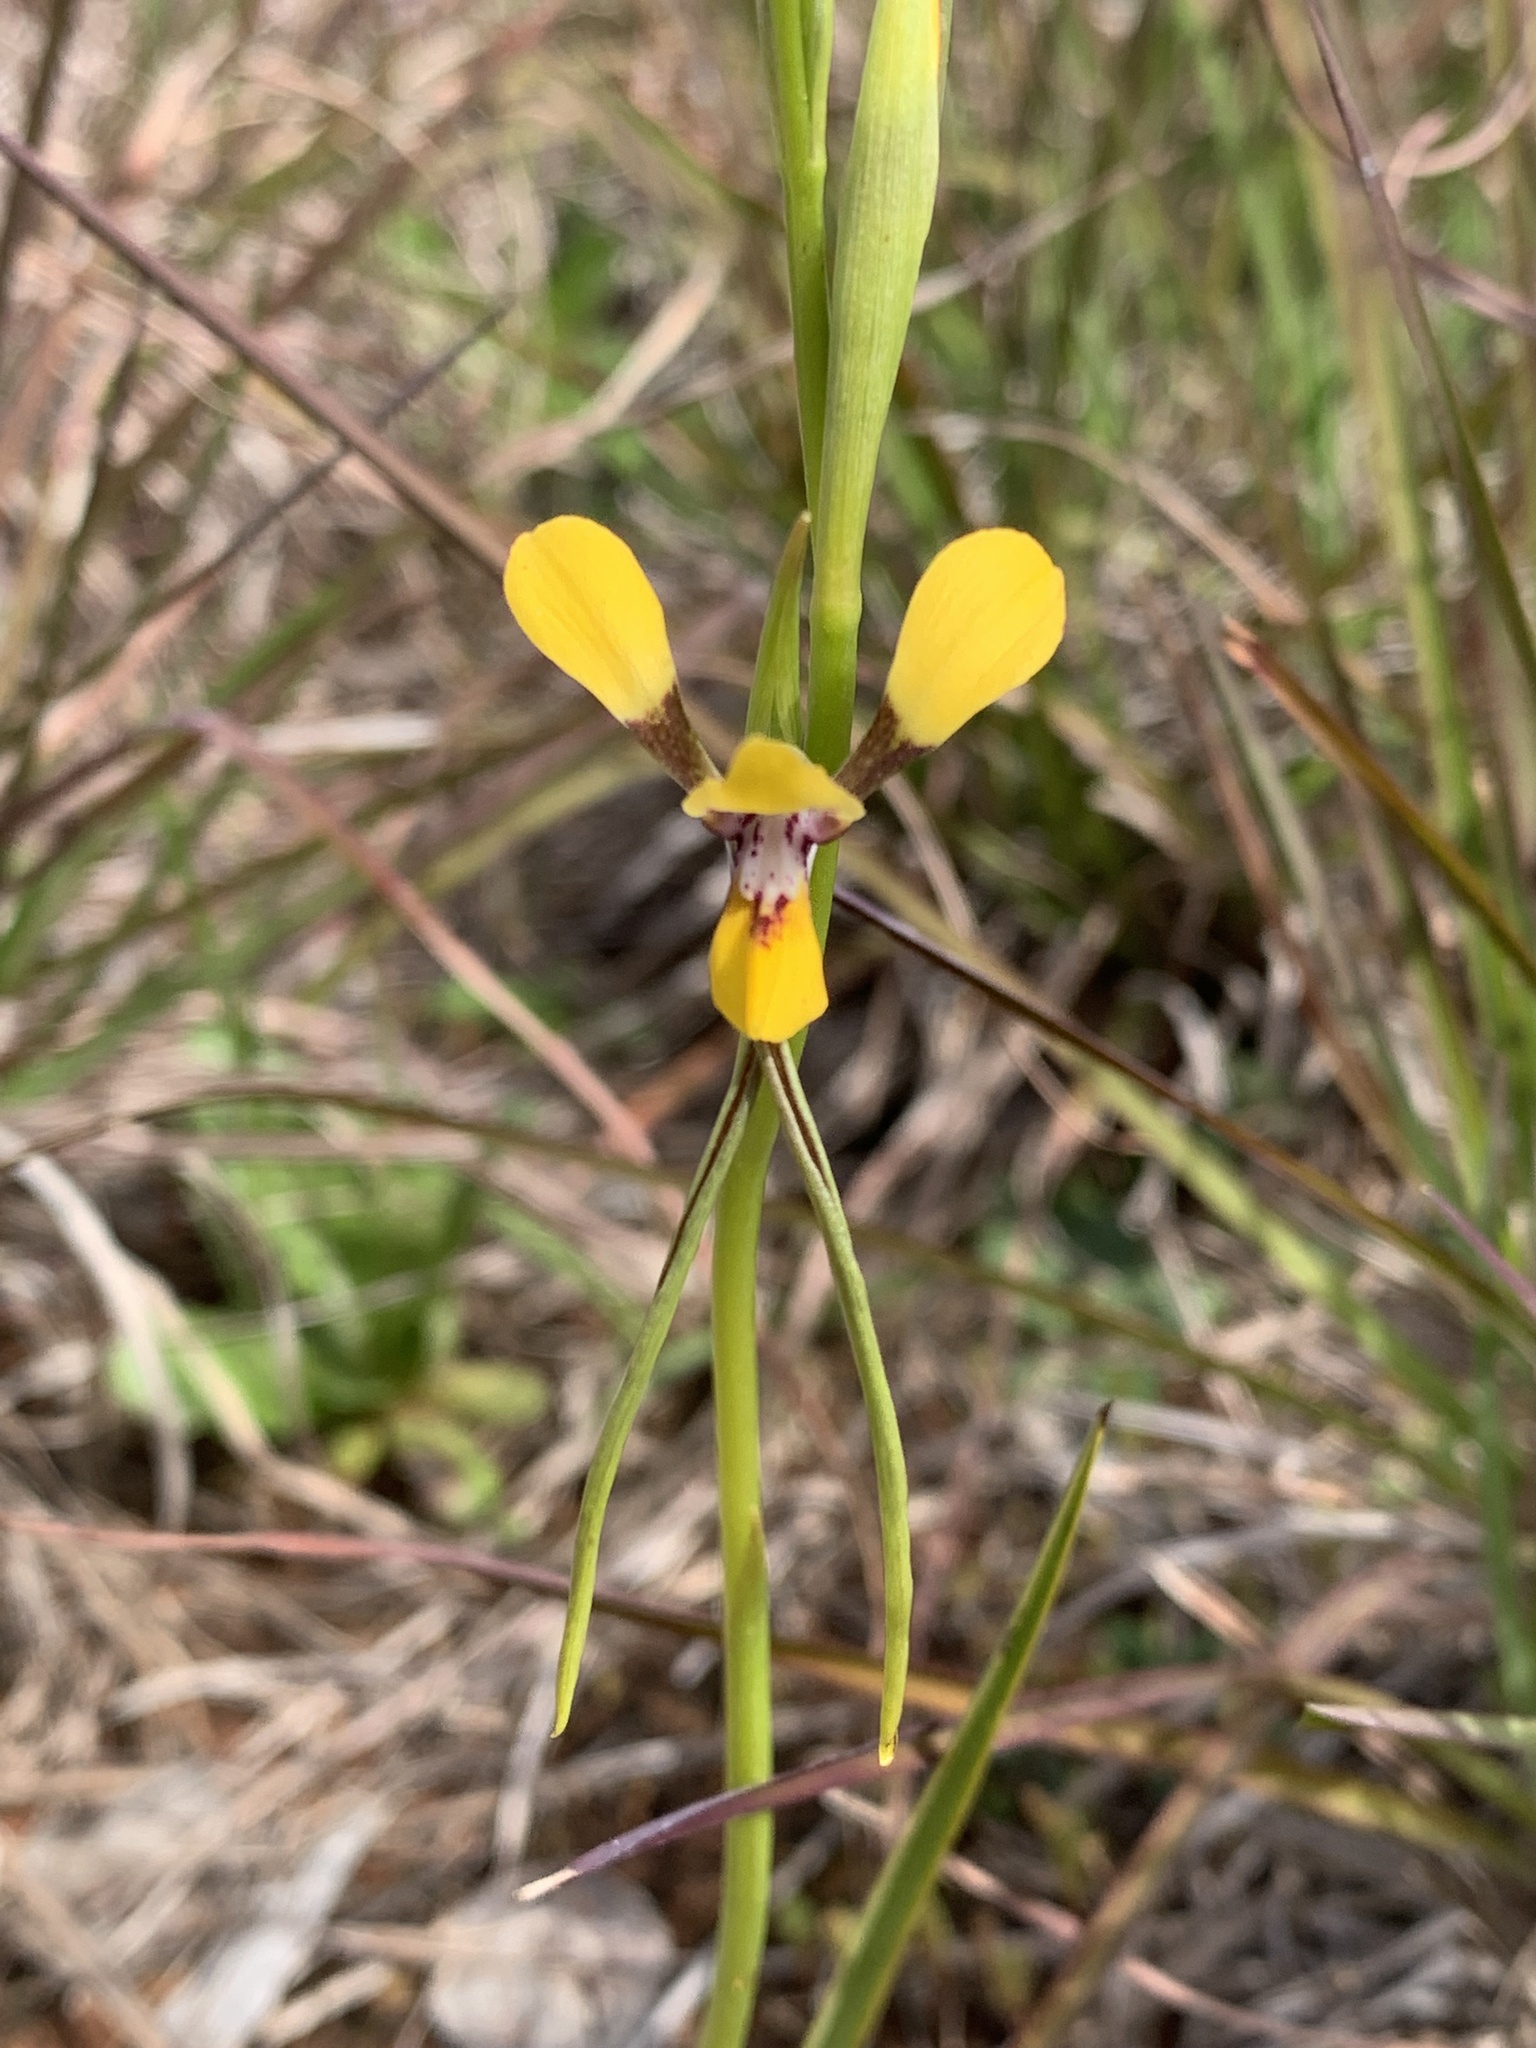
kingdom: Plantae
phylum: Tracheophyta
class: Liliopsida
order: Asparagales
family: Orchidaceae
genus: Diuris
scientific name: Diuris tricolor
